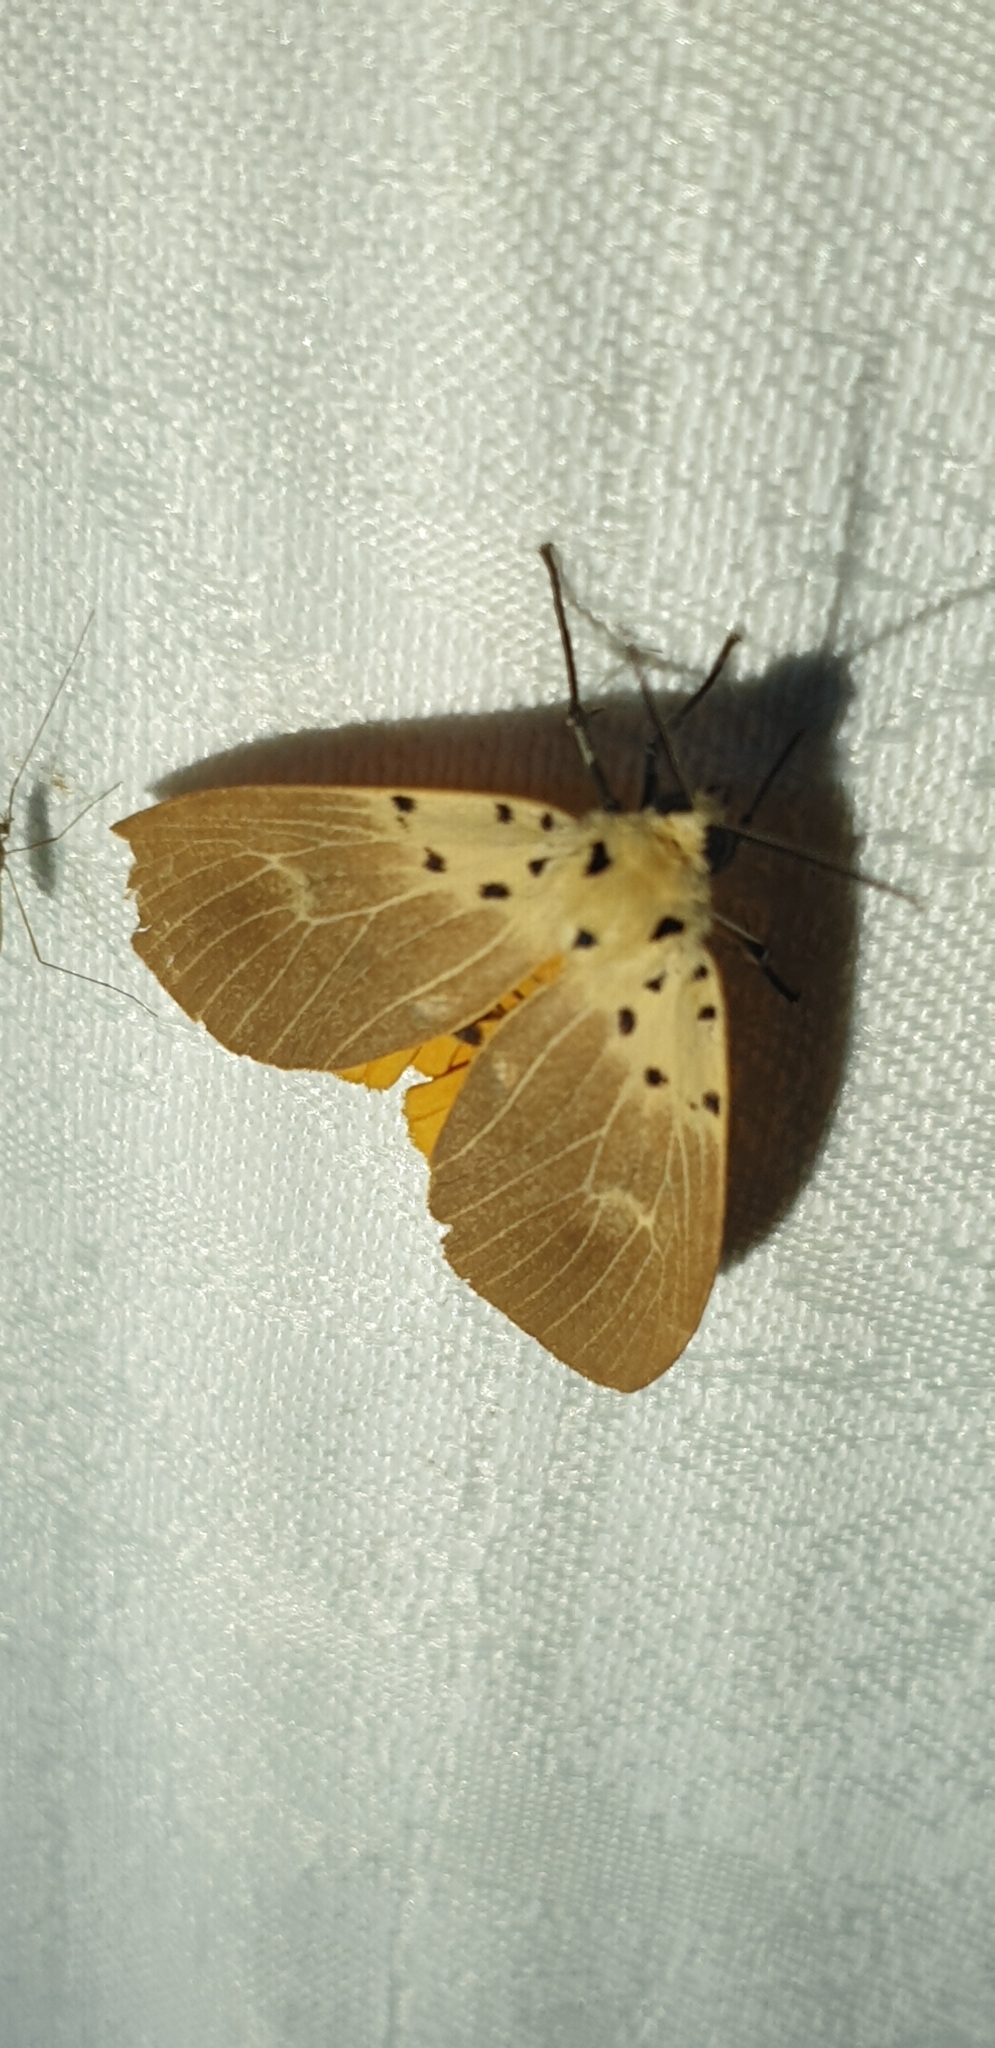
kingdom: Animalia
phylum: Arthropoda
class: Insecta
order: Lepidoptera
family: Erebidae
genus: Asota
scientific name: Asota iodamia
